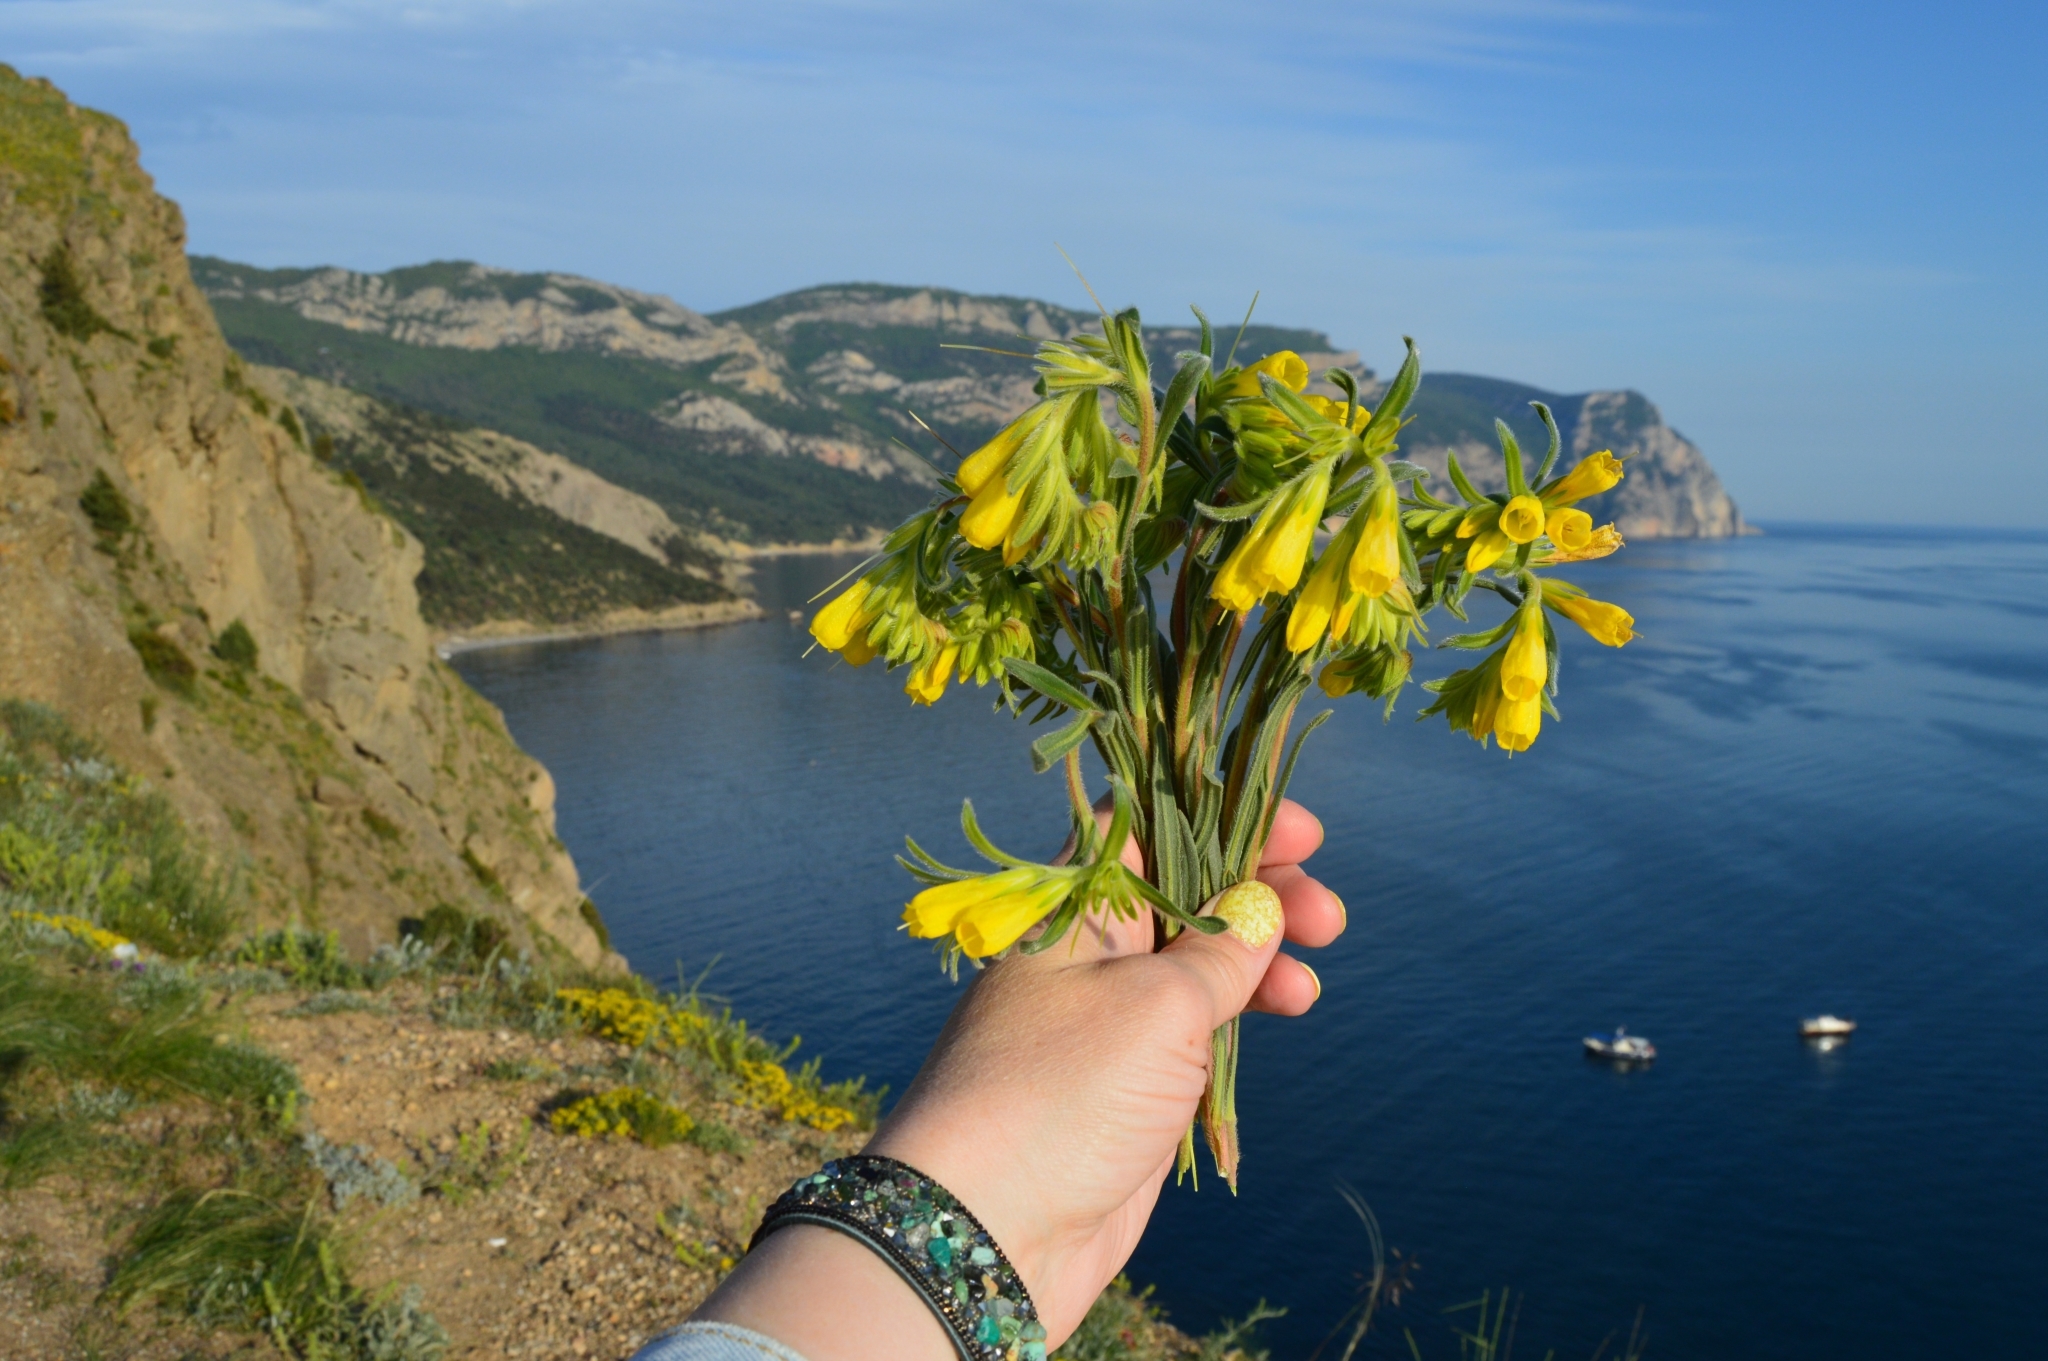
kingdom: Plantae
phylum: Tracheophyta
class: Magnoliopsida
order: Boraginales
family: Boraginaceae
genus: Onosma
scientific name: Onosma taurica
